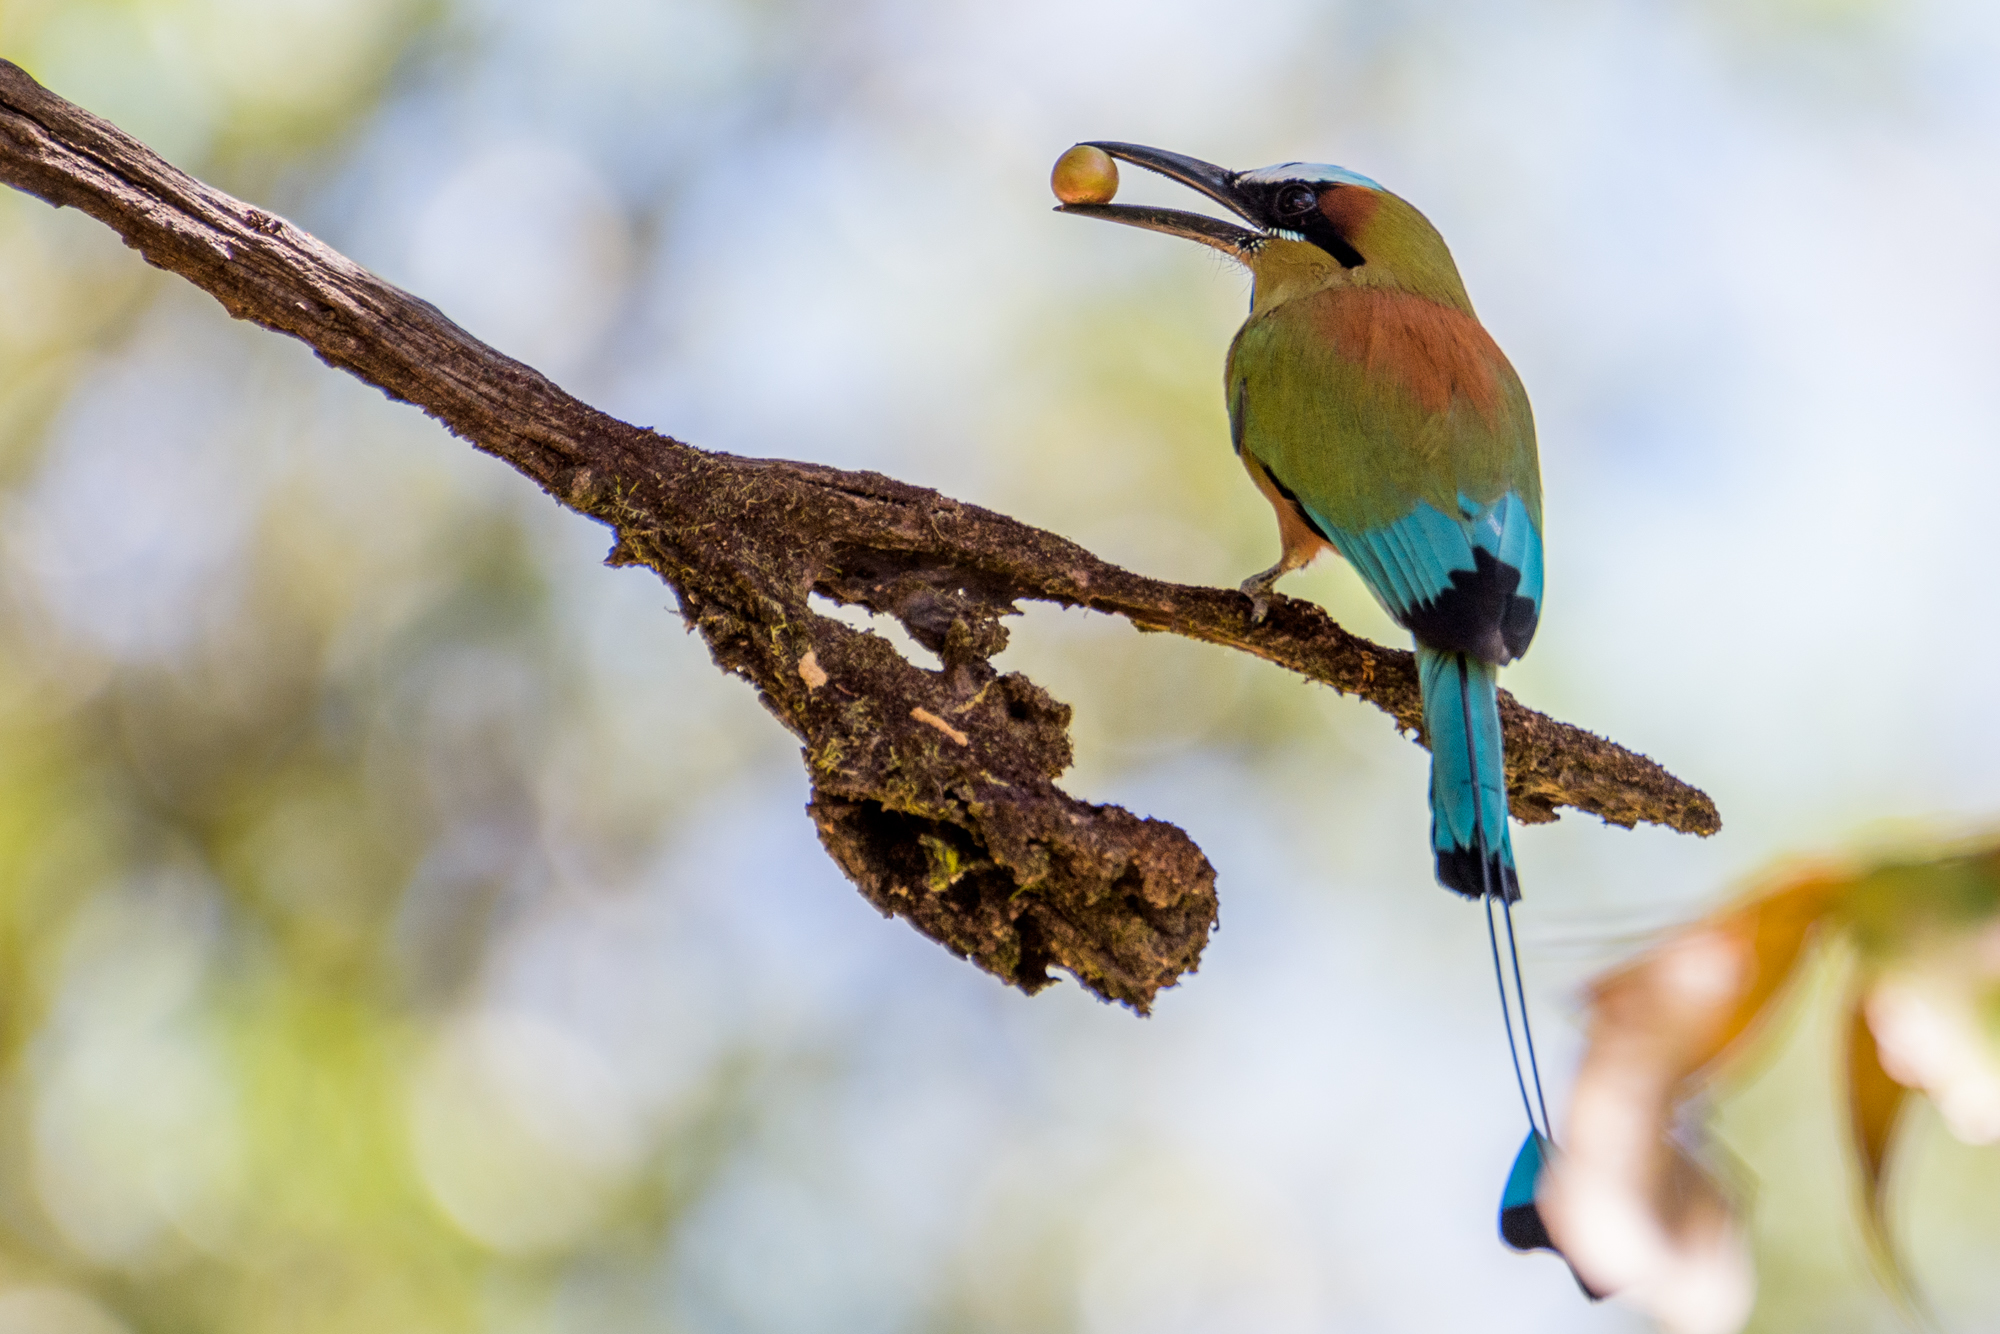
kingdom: Animalia
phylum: Chordata
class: Aves
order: Coraciiformes
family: Momotidae
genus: Eumomota
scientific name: Eumomota superciliosa
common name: Turquoise-browed motmot
